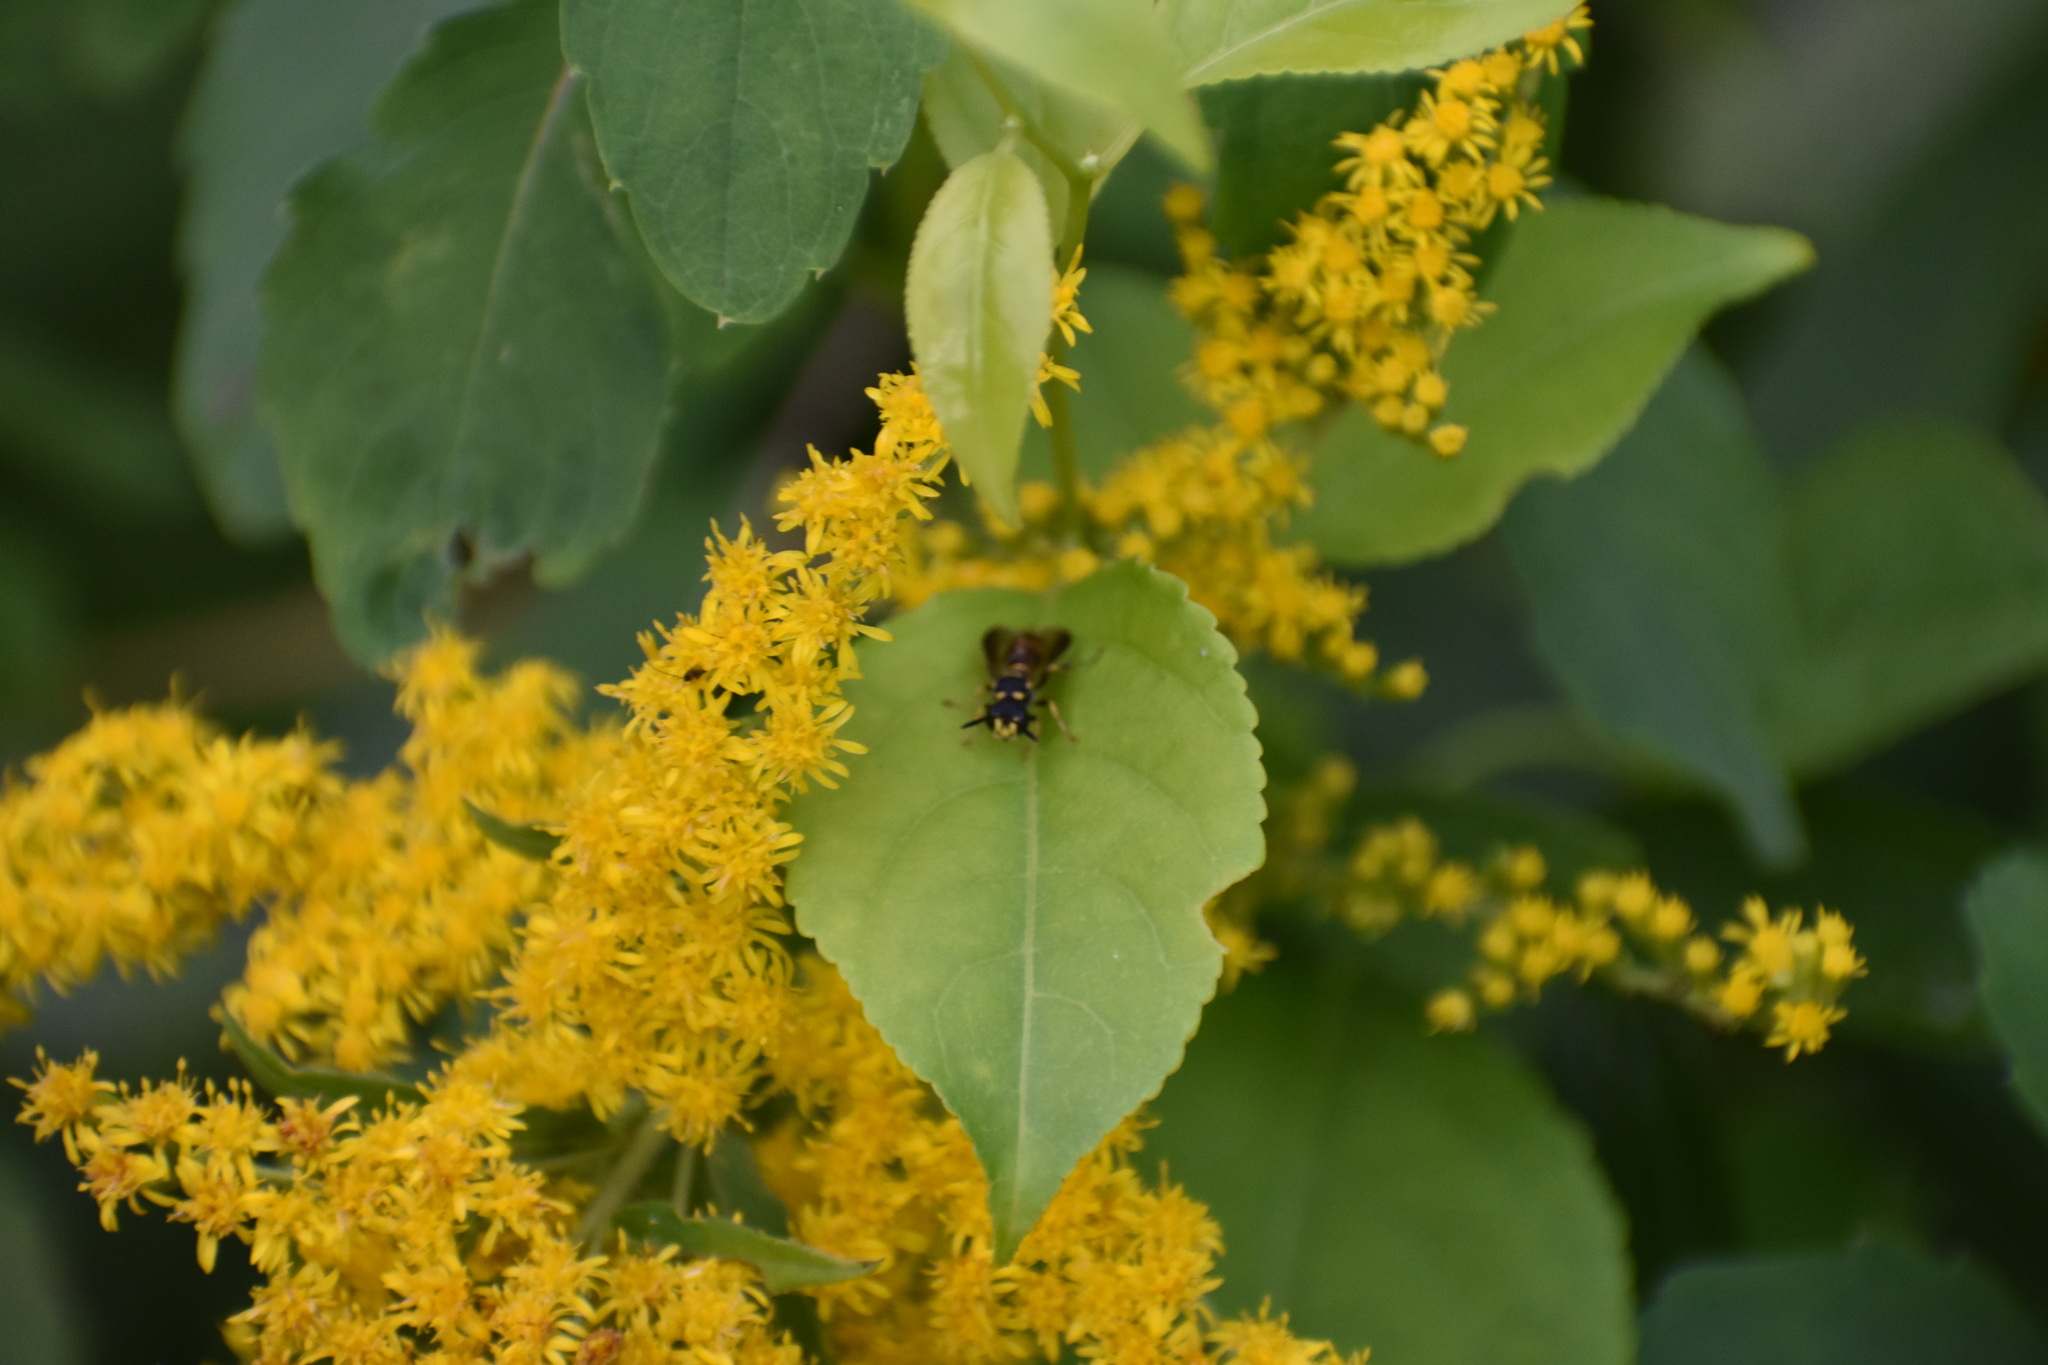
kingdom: Animalia
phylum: Arthropoda
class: Insecta
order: Hymenoptera
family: Crabronidae
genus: Cerceris
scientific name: Cerceris insolita
